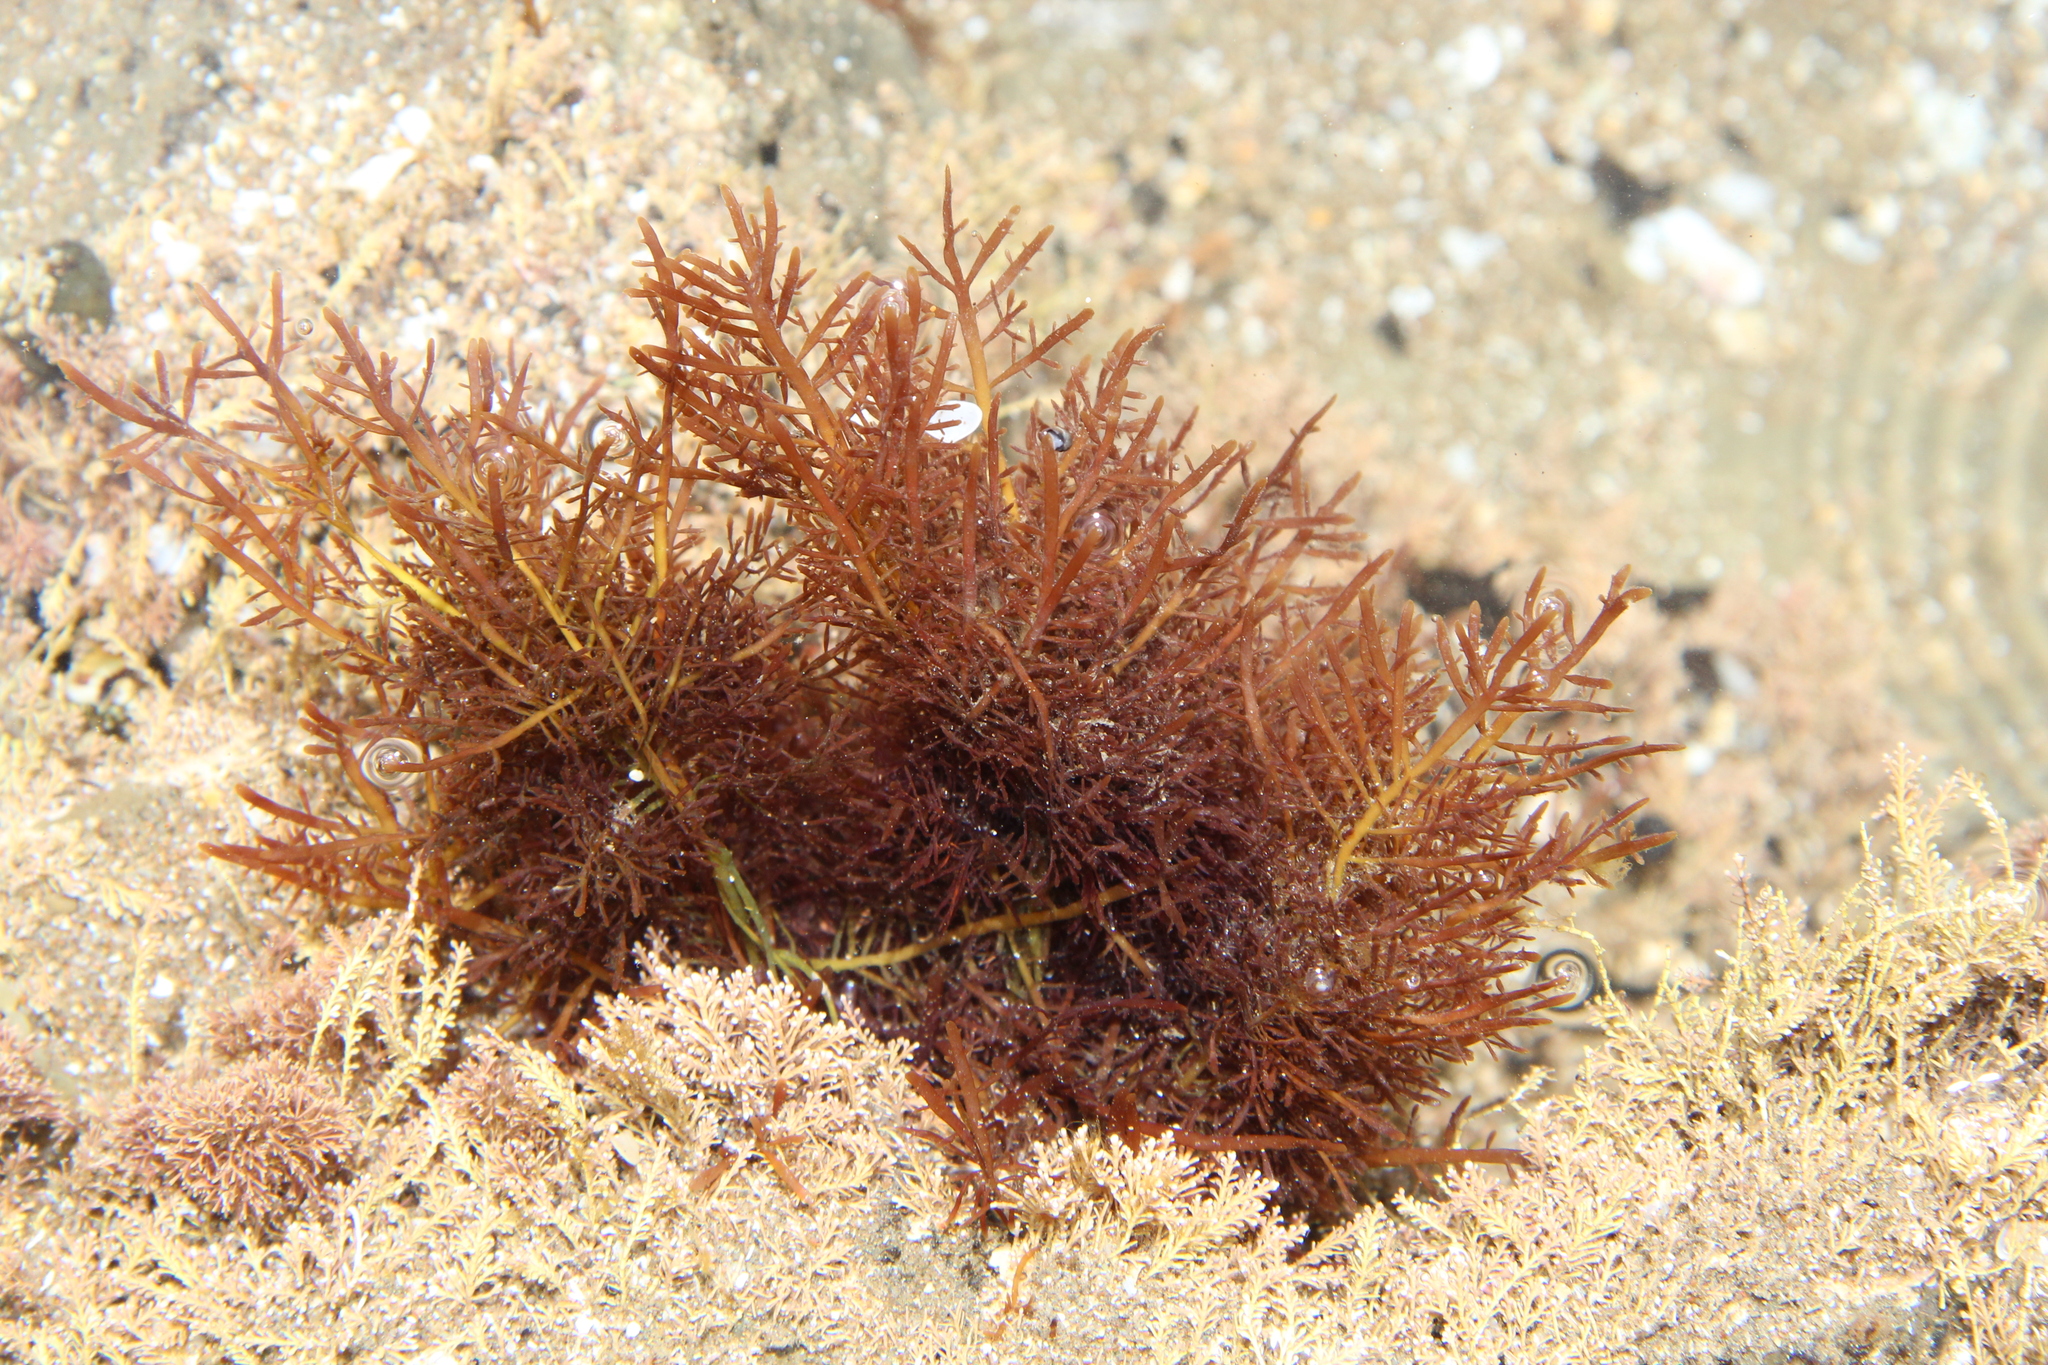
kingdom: Plantae
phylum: Rhodophyta
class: Florideophyceae
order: Gelidiales
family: Pterocladiaceae
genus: Pterocladiella
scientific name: Pterocladiella capillacea
